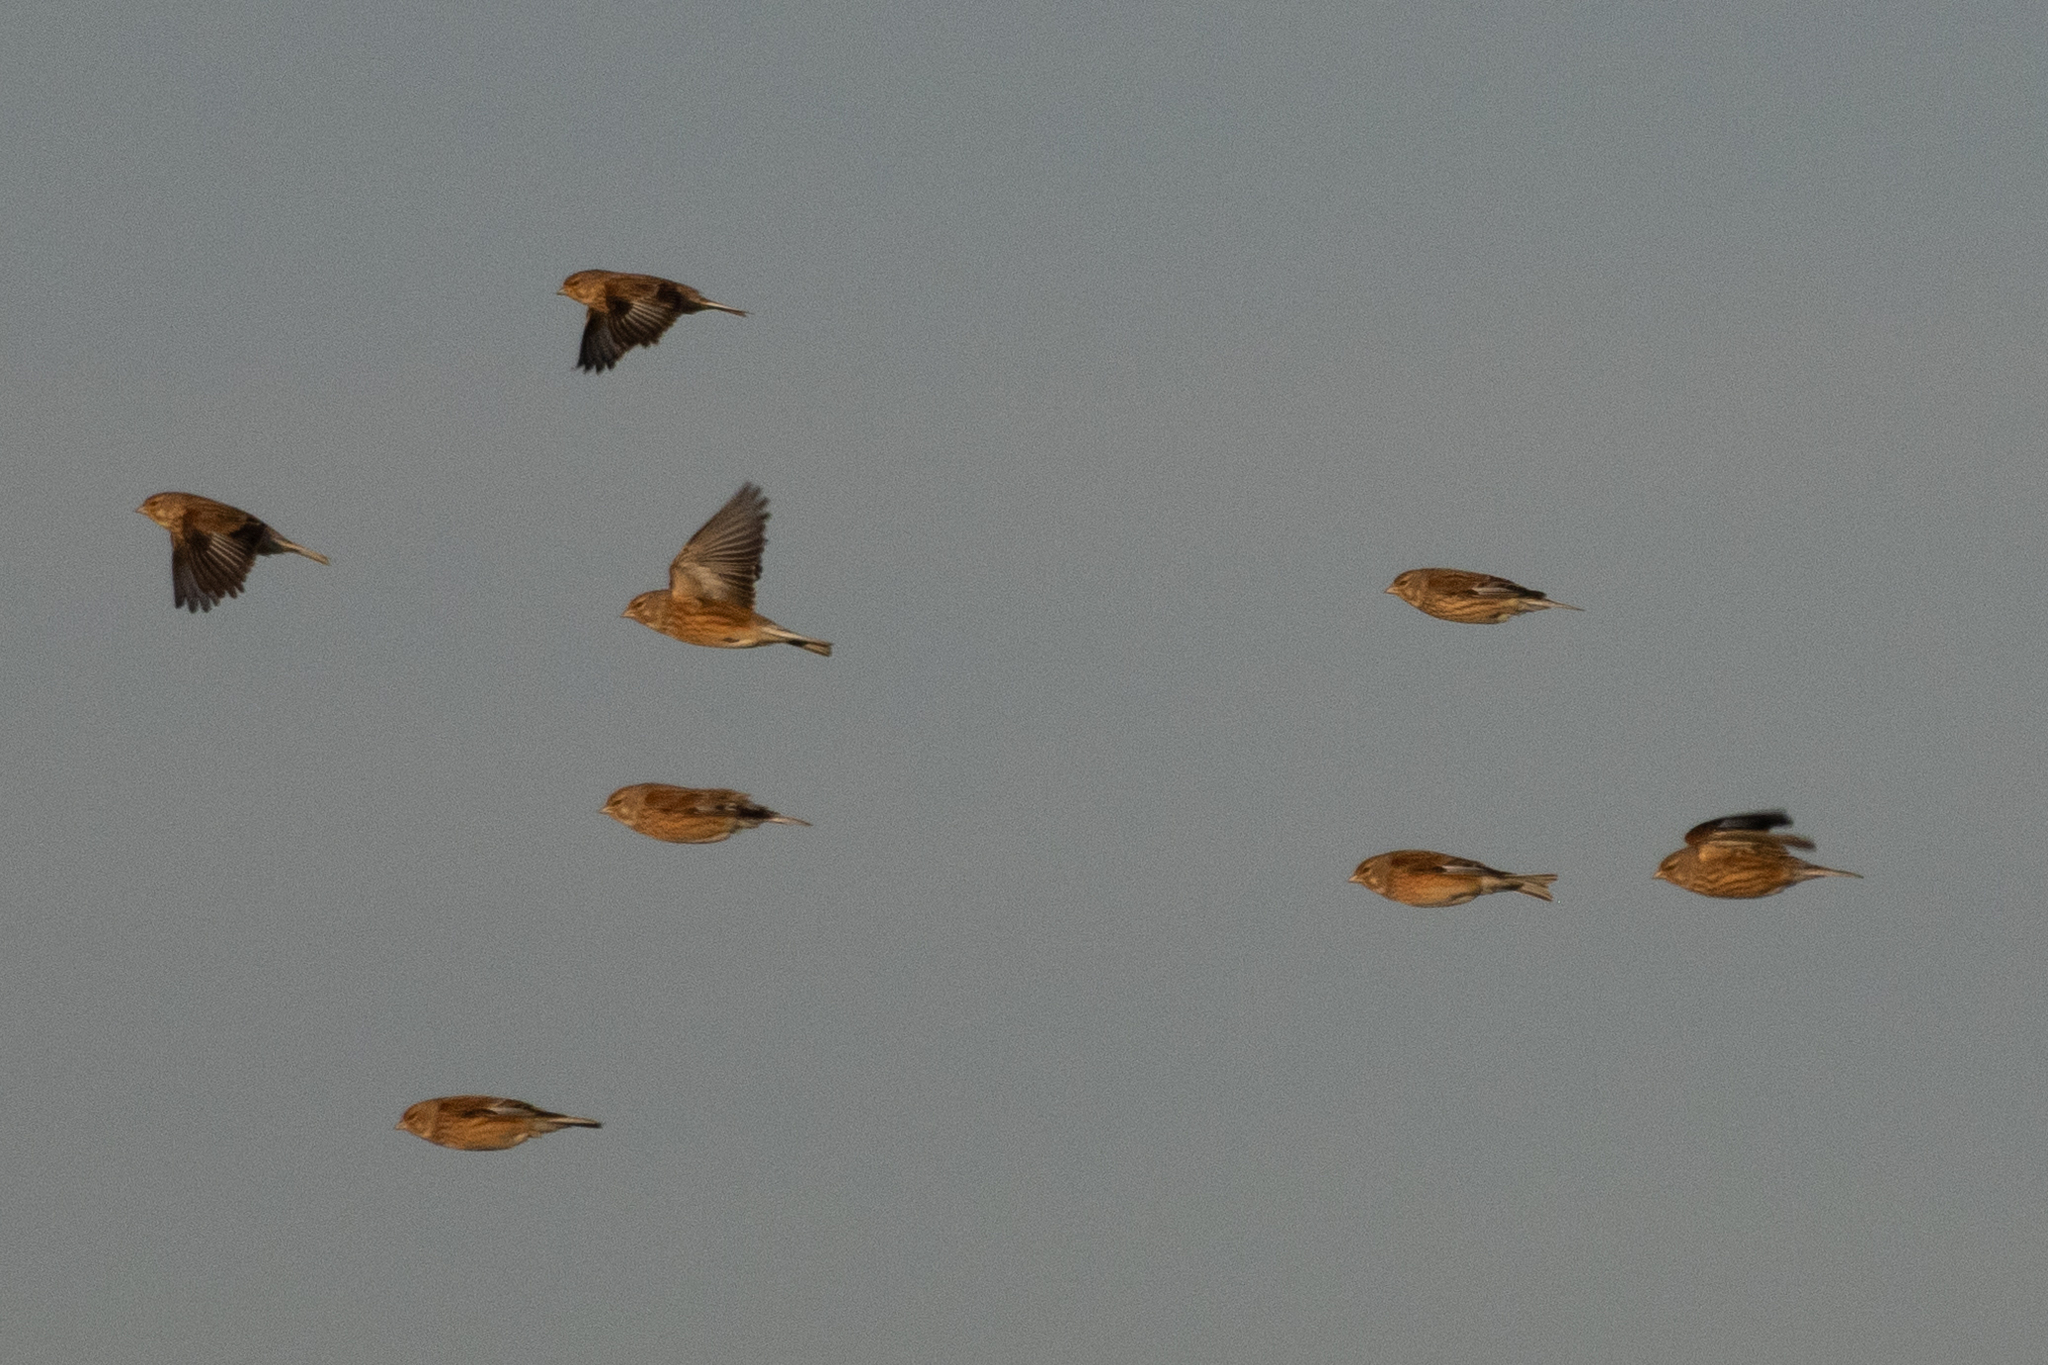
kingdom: Animalia
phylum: Chordata
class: Aves
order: Passeriformes
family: Fringillidae
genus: Linaria
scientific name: Linaria cannabina
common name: Common linnet
